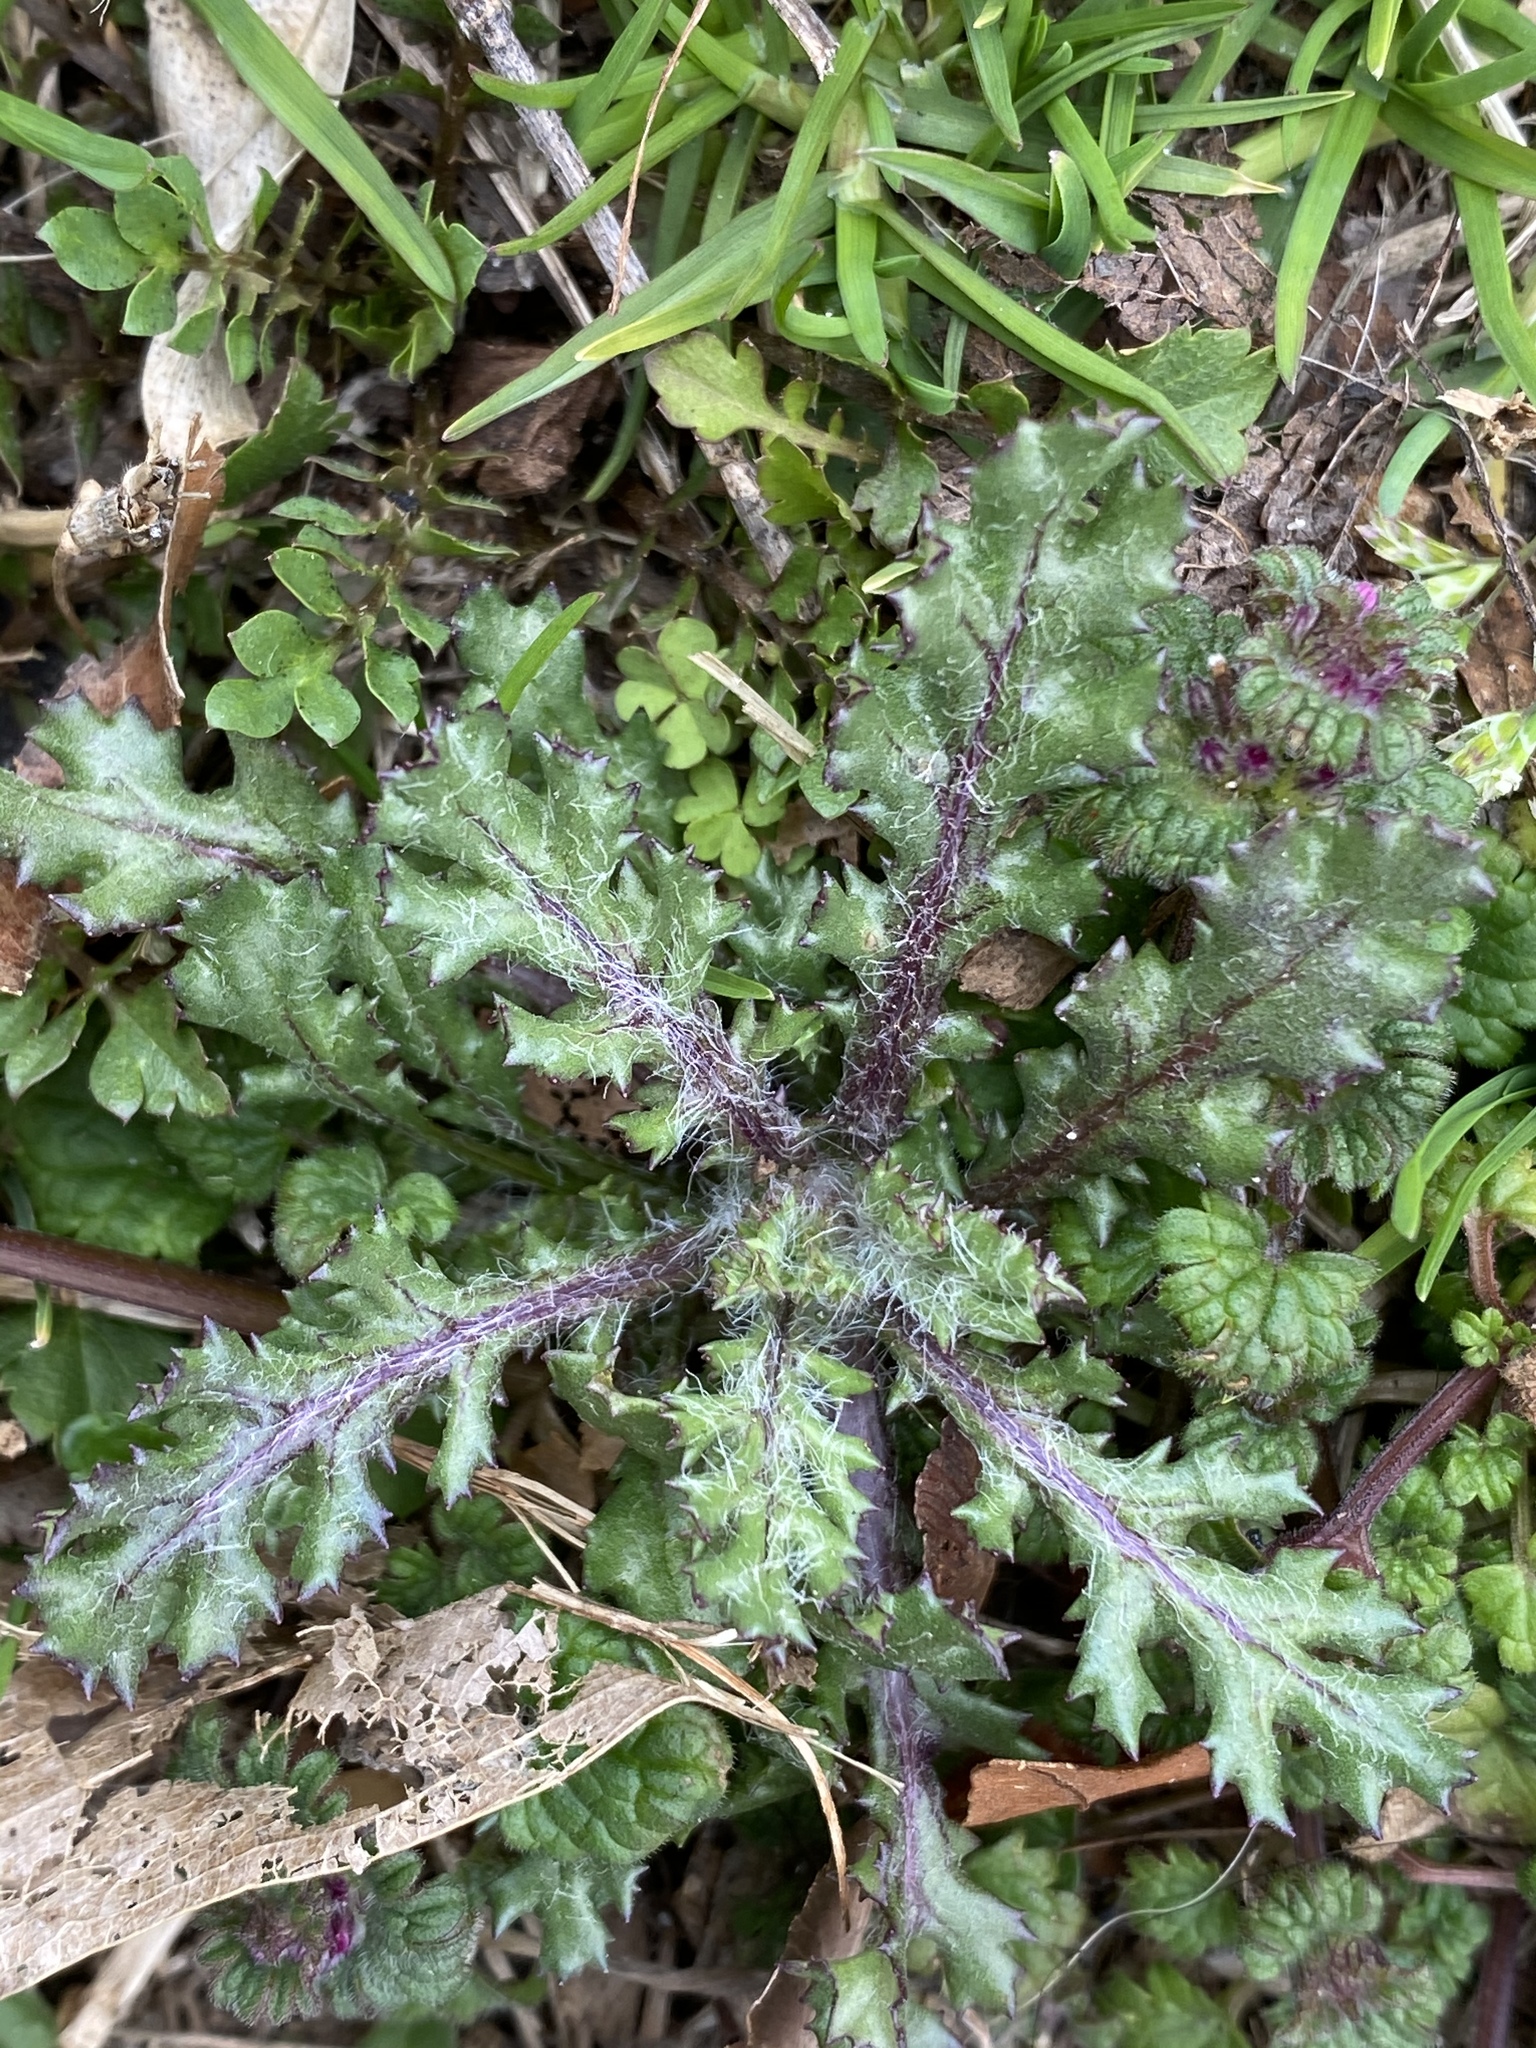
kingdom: Plantae
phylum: Tracheophyta
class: Magnoliopsida
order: Asterales
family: Asteraceae
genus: Senecio
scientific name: Senecio vulgaris
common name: Old-man-in-the-spring
